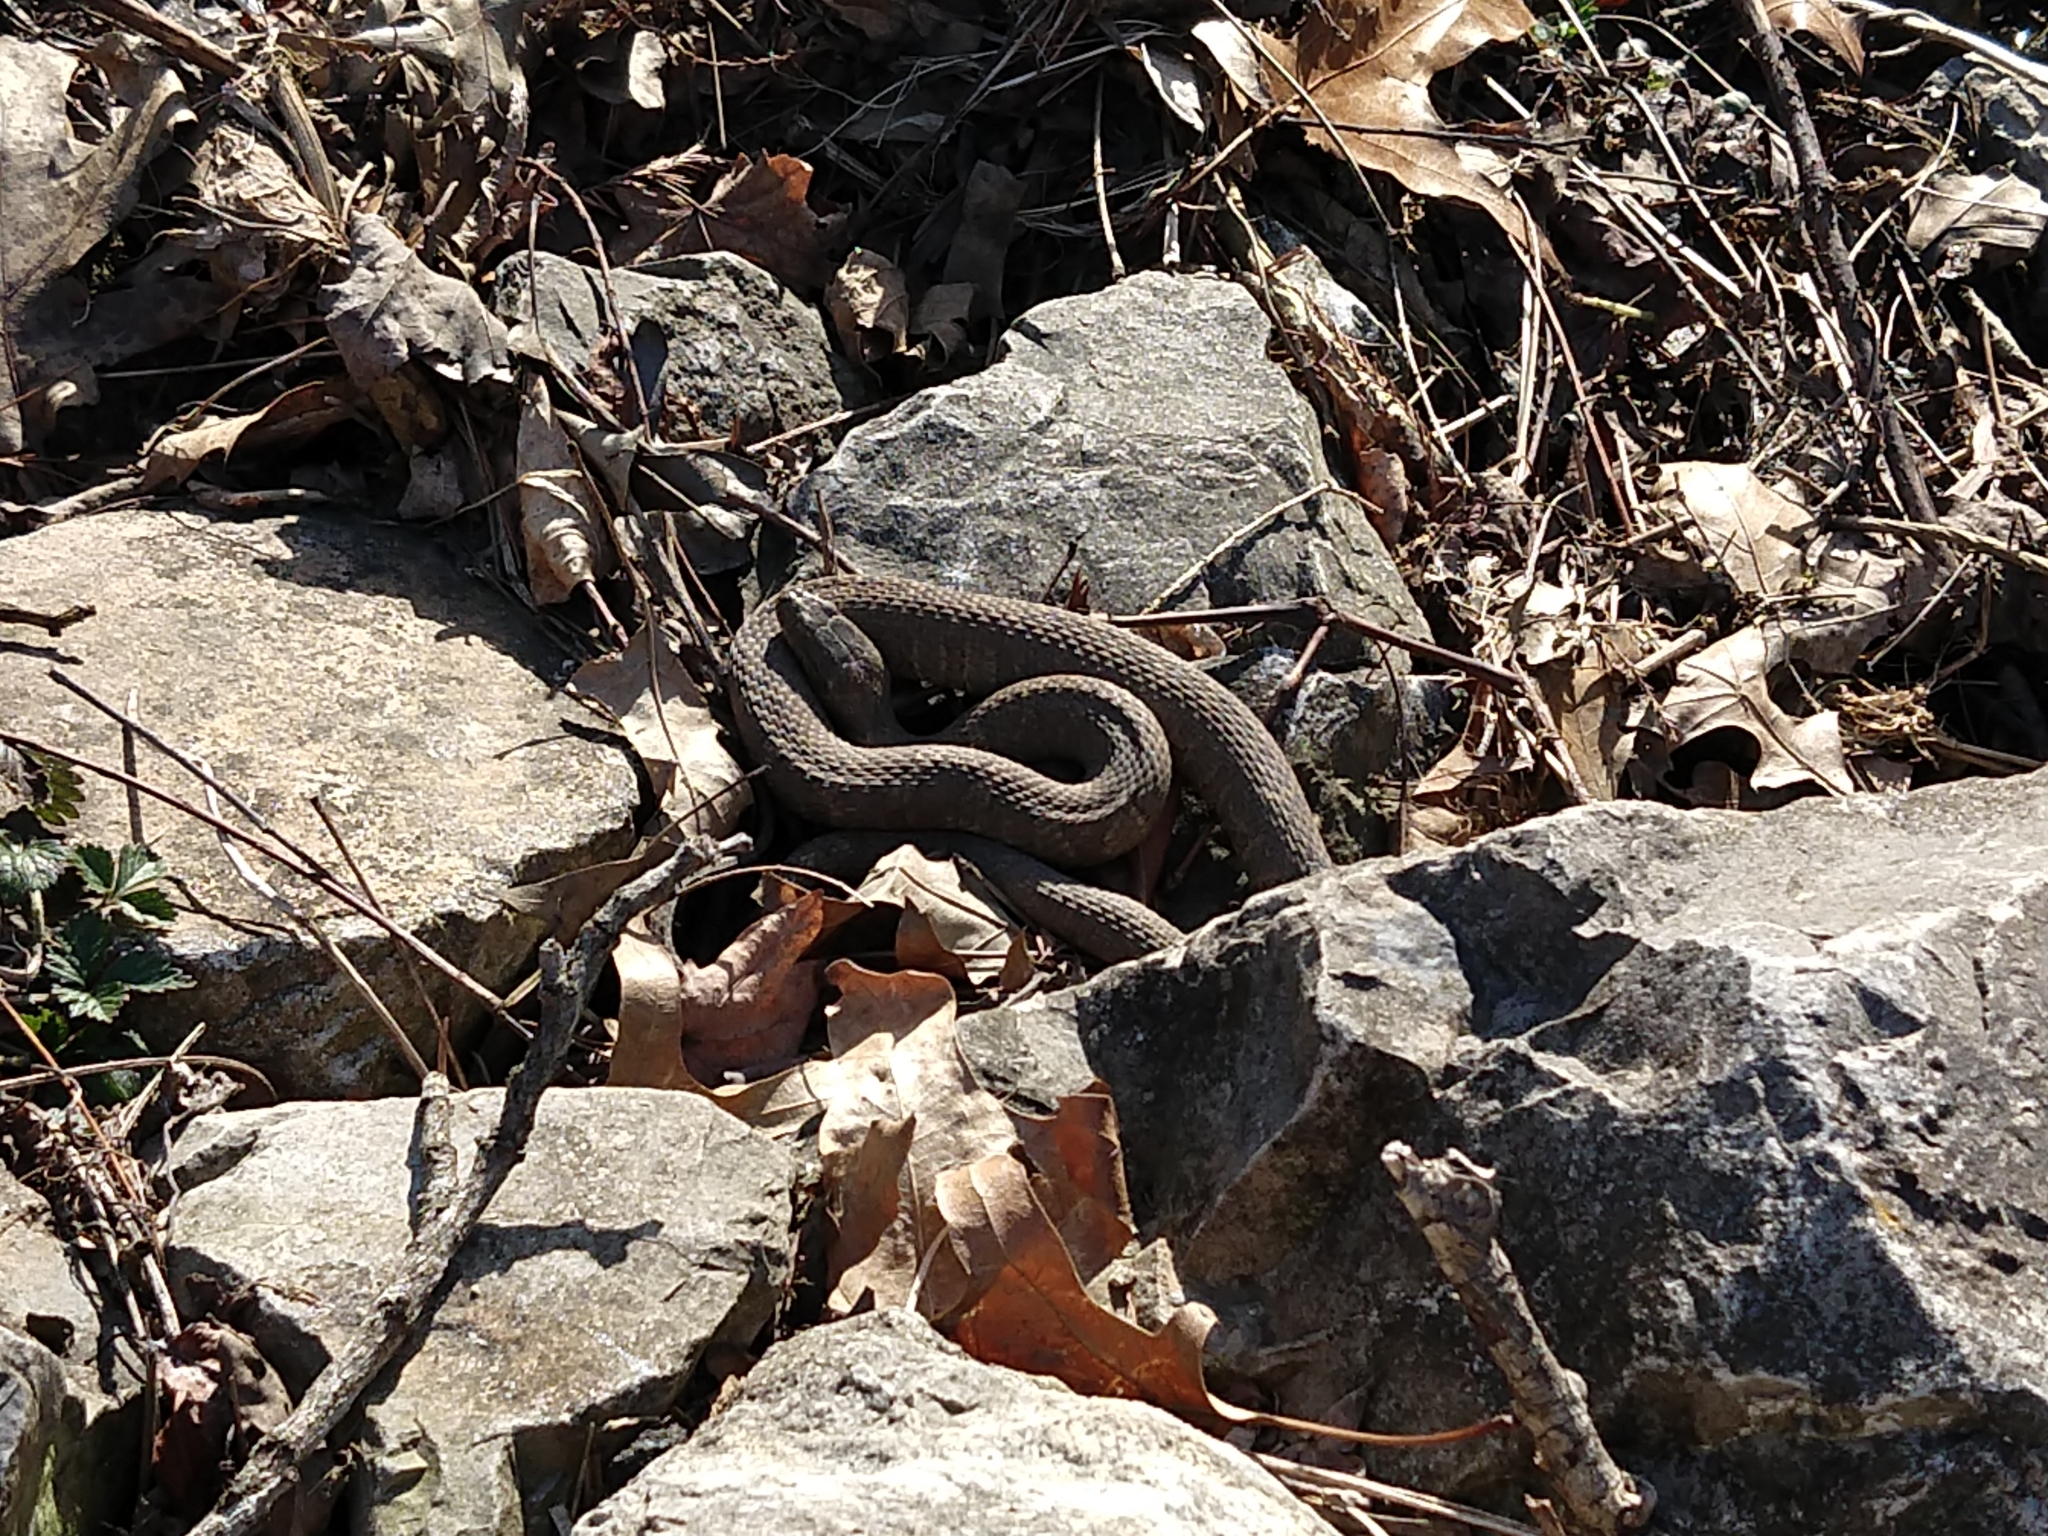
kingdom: Animalia
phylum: Chordata
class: Squamata
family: Colubridae
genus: Nerodia
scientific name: Nerodia sipedon
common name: Northern water snake
